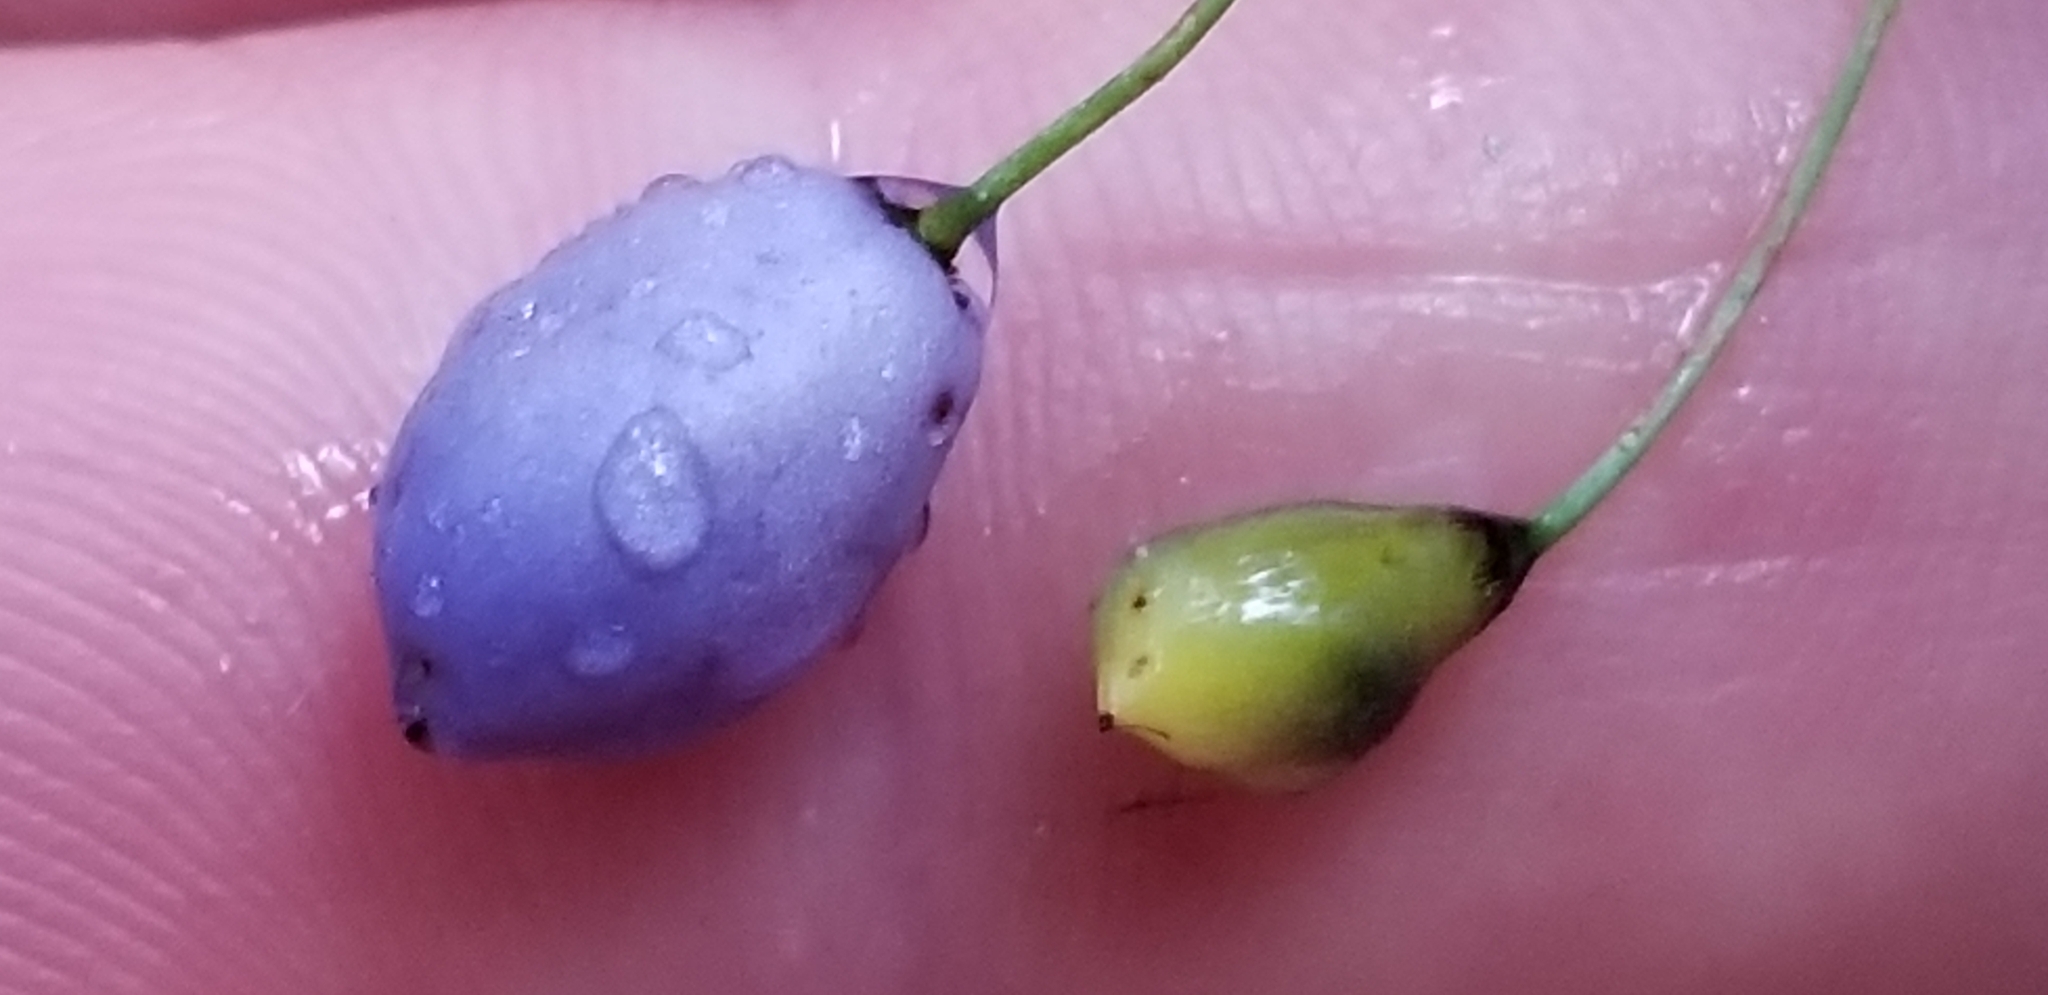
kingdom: Plantae
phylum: Tracheophyta
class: Liliopsida
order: Asparagales
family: Asphodelaceae
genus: Dianella
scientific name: Dianella nigra
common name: New zealand-blueberry
